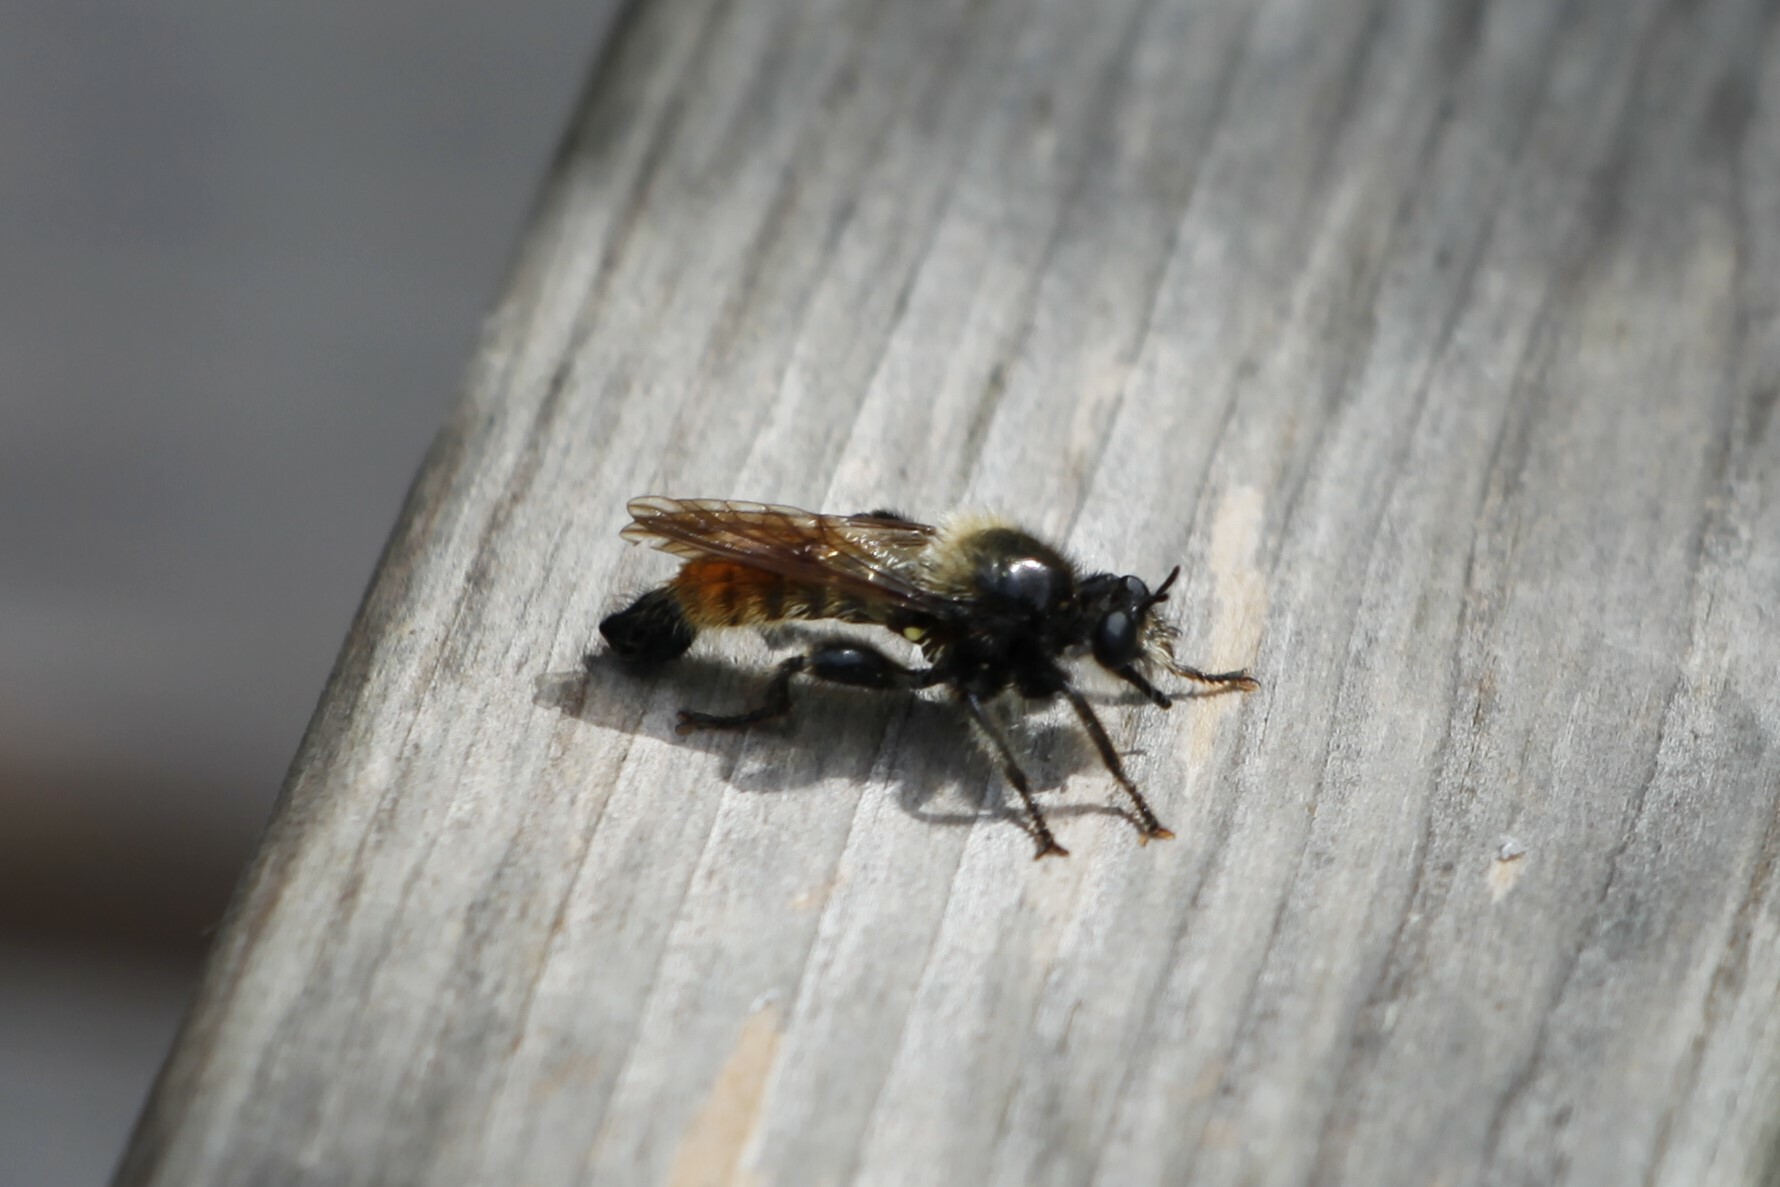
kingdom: Animalia
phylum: Arthropoda
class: Insecta
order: Diptera
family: Asilidae
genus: Laphria
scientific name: Laphria flava
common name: Bumblebee robberfly
